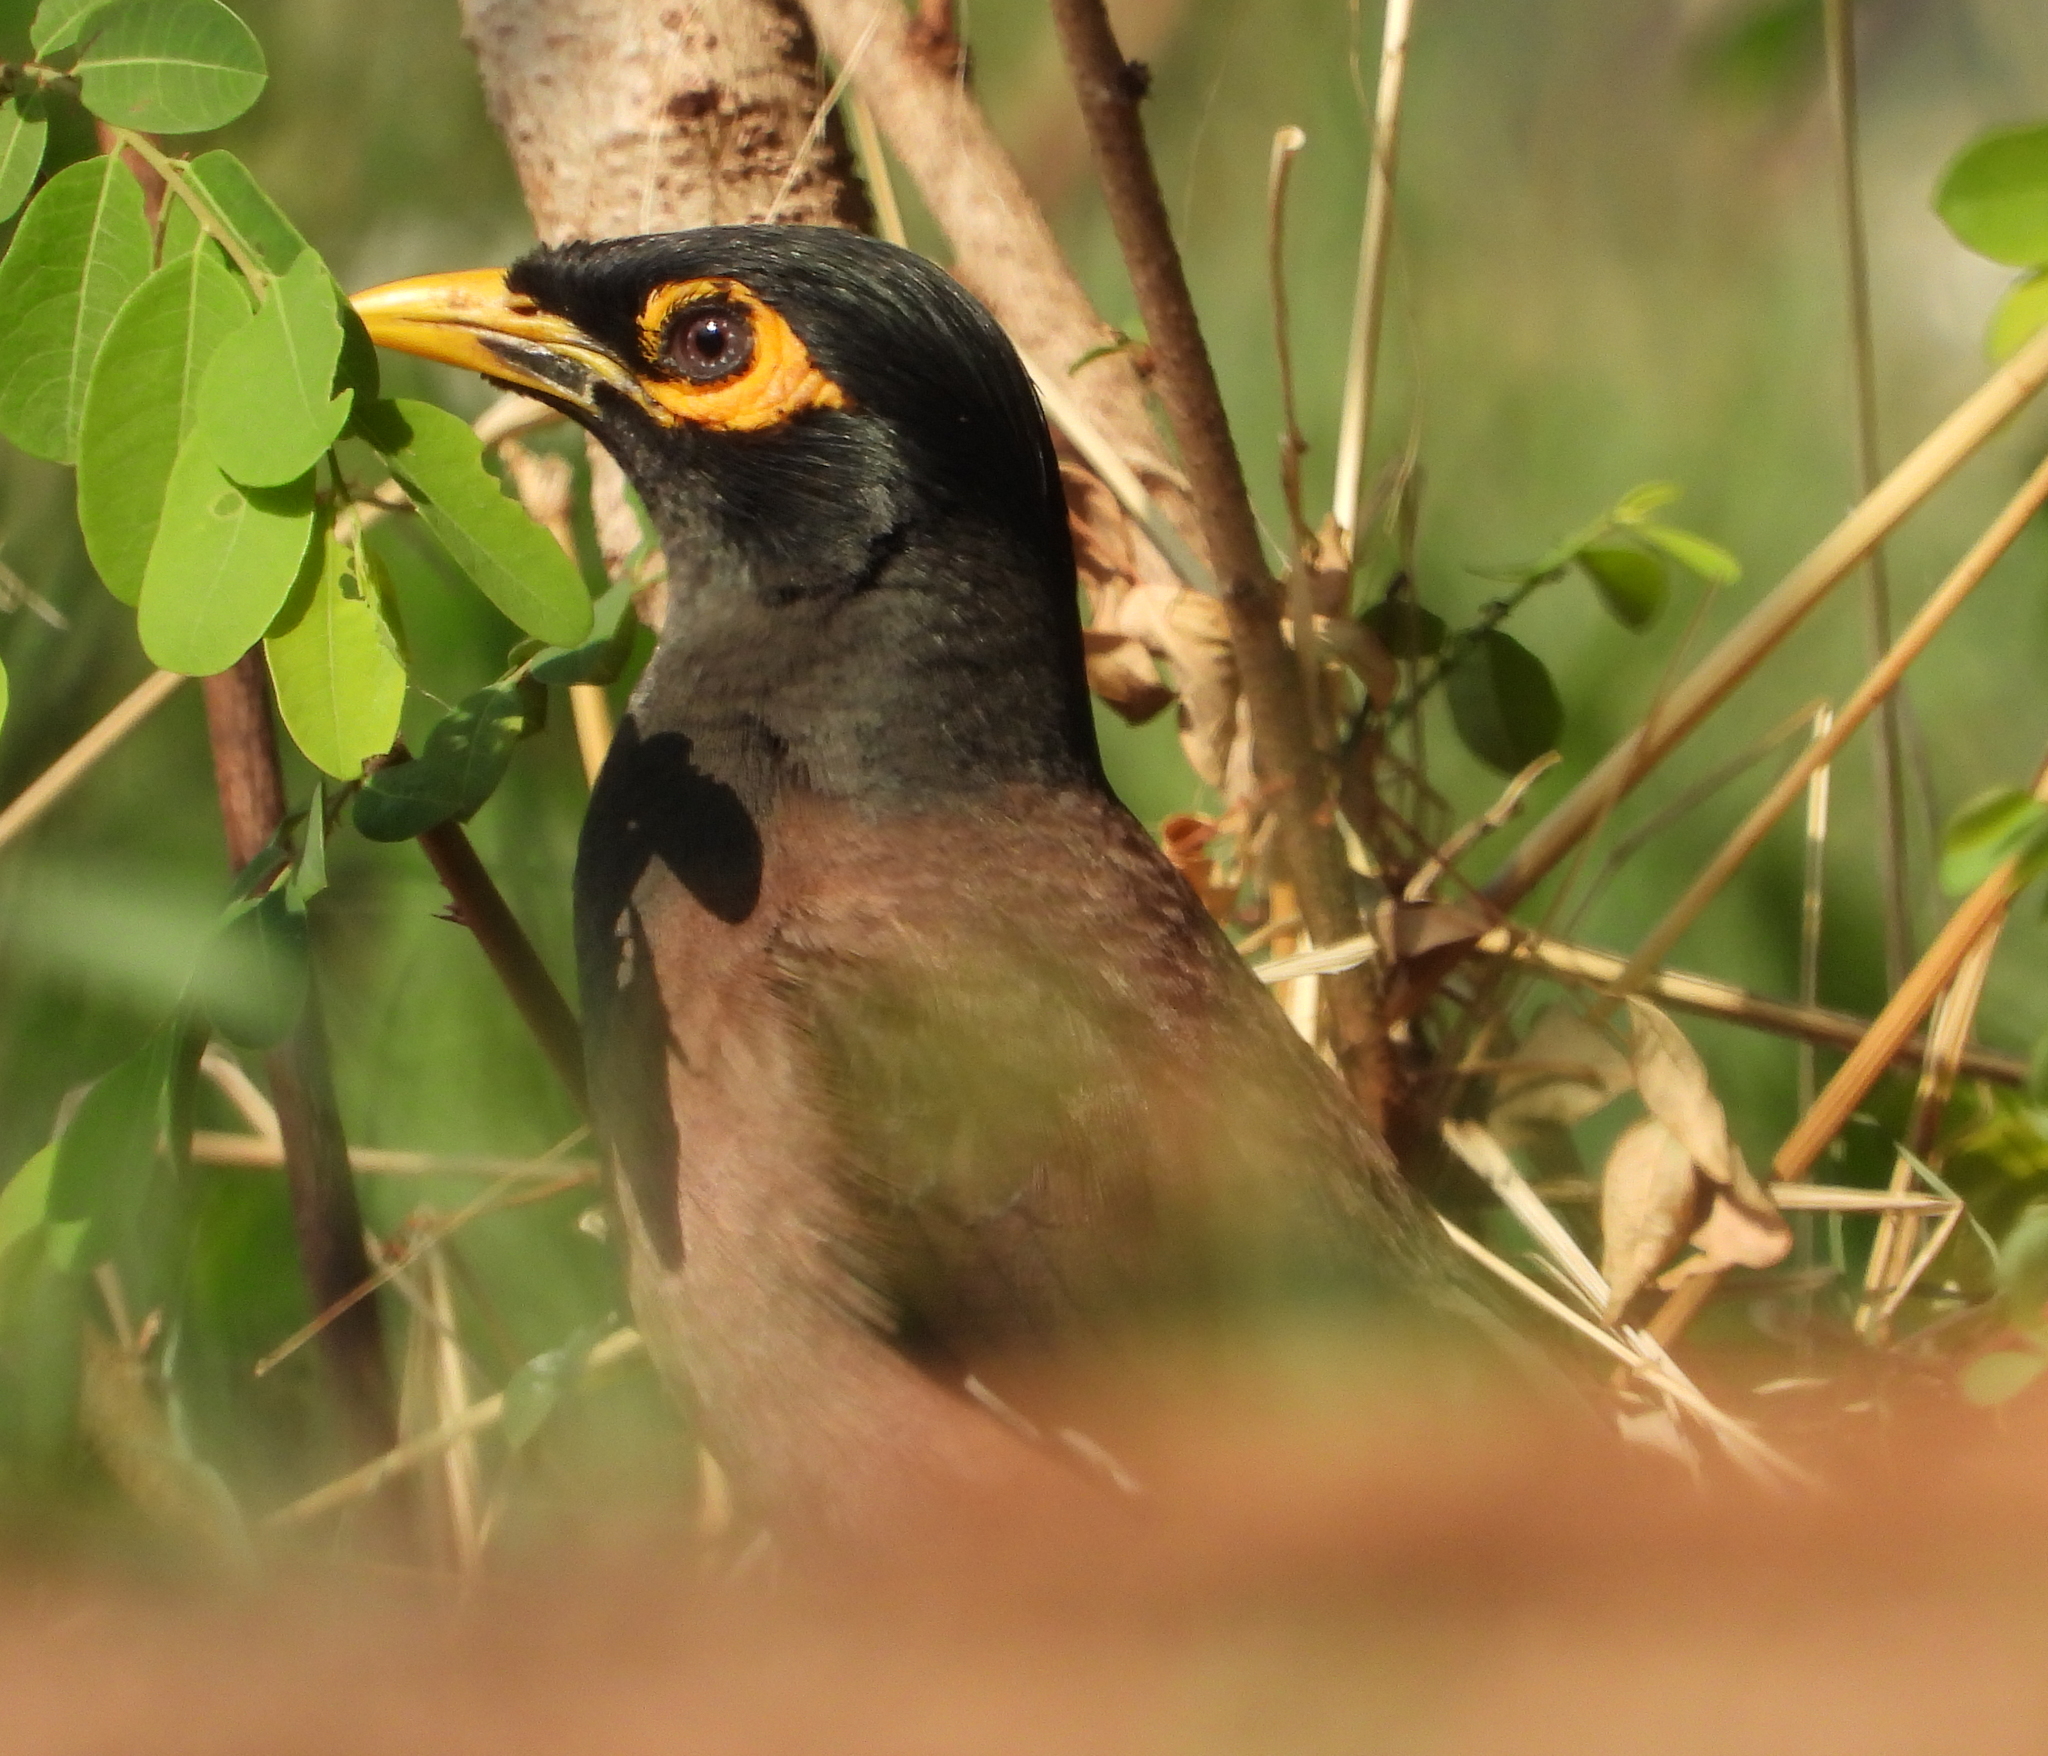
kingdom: Animalia
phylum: Chordata
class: Aves
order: Passeriformes
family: Sturnidae
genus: Acridotheres
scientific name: Acridotheres tristis
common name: Common myna
